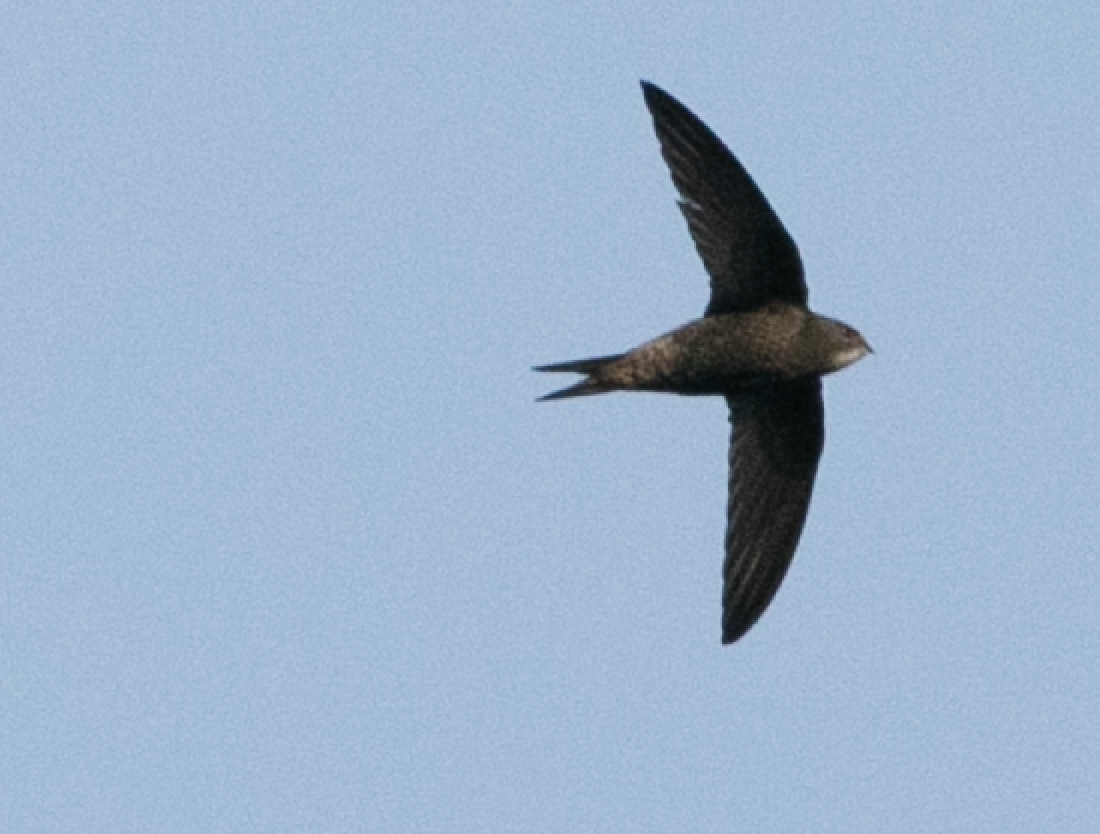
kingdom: Animalia
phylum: Chordata
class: Aves
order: Apodiformes
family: Apodidae
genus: Apus
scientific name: Apus apus
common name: Common swift
